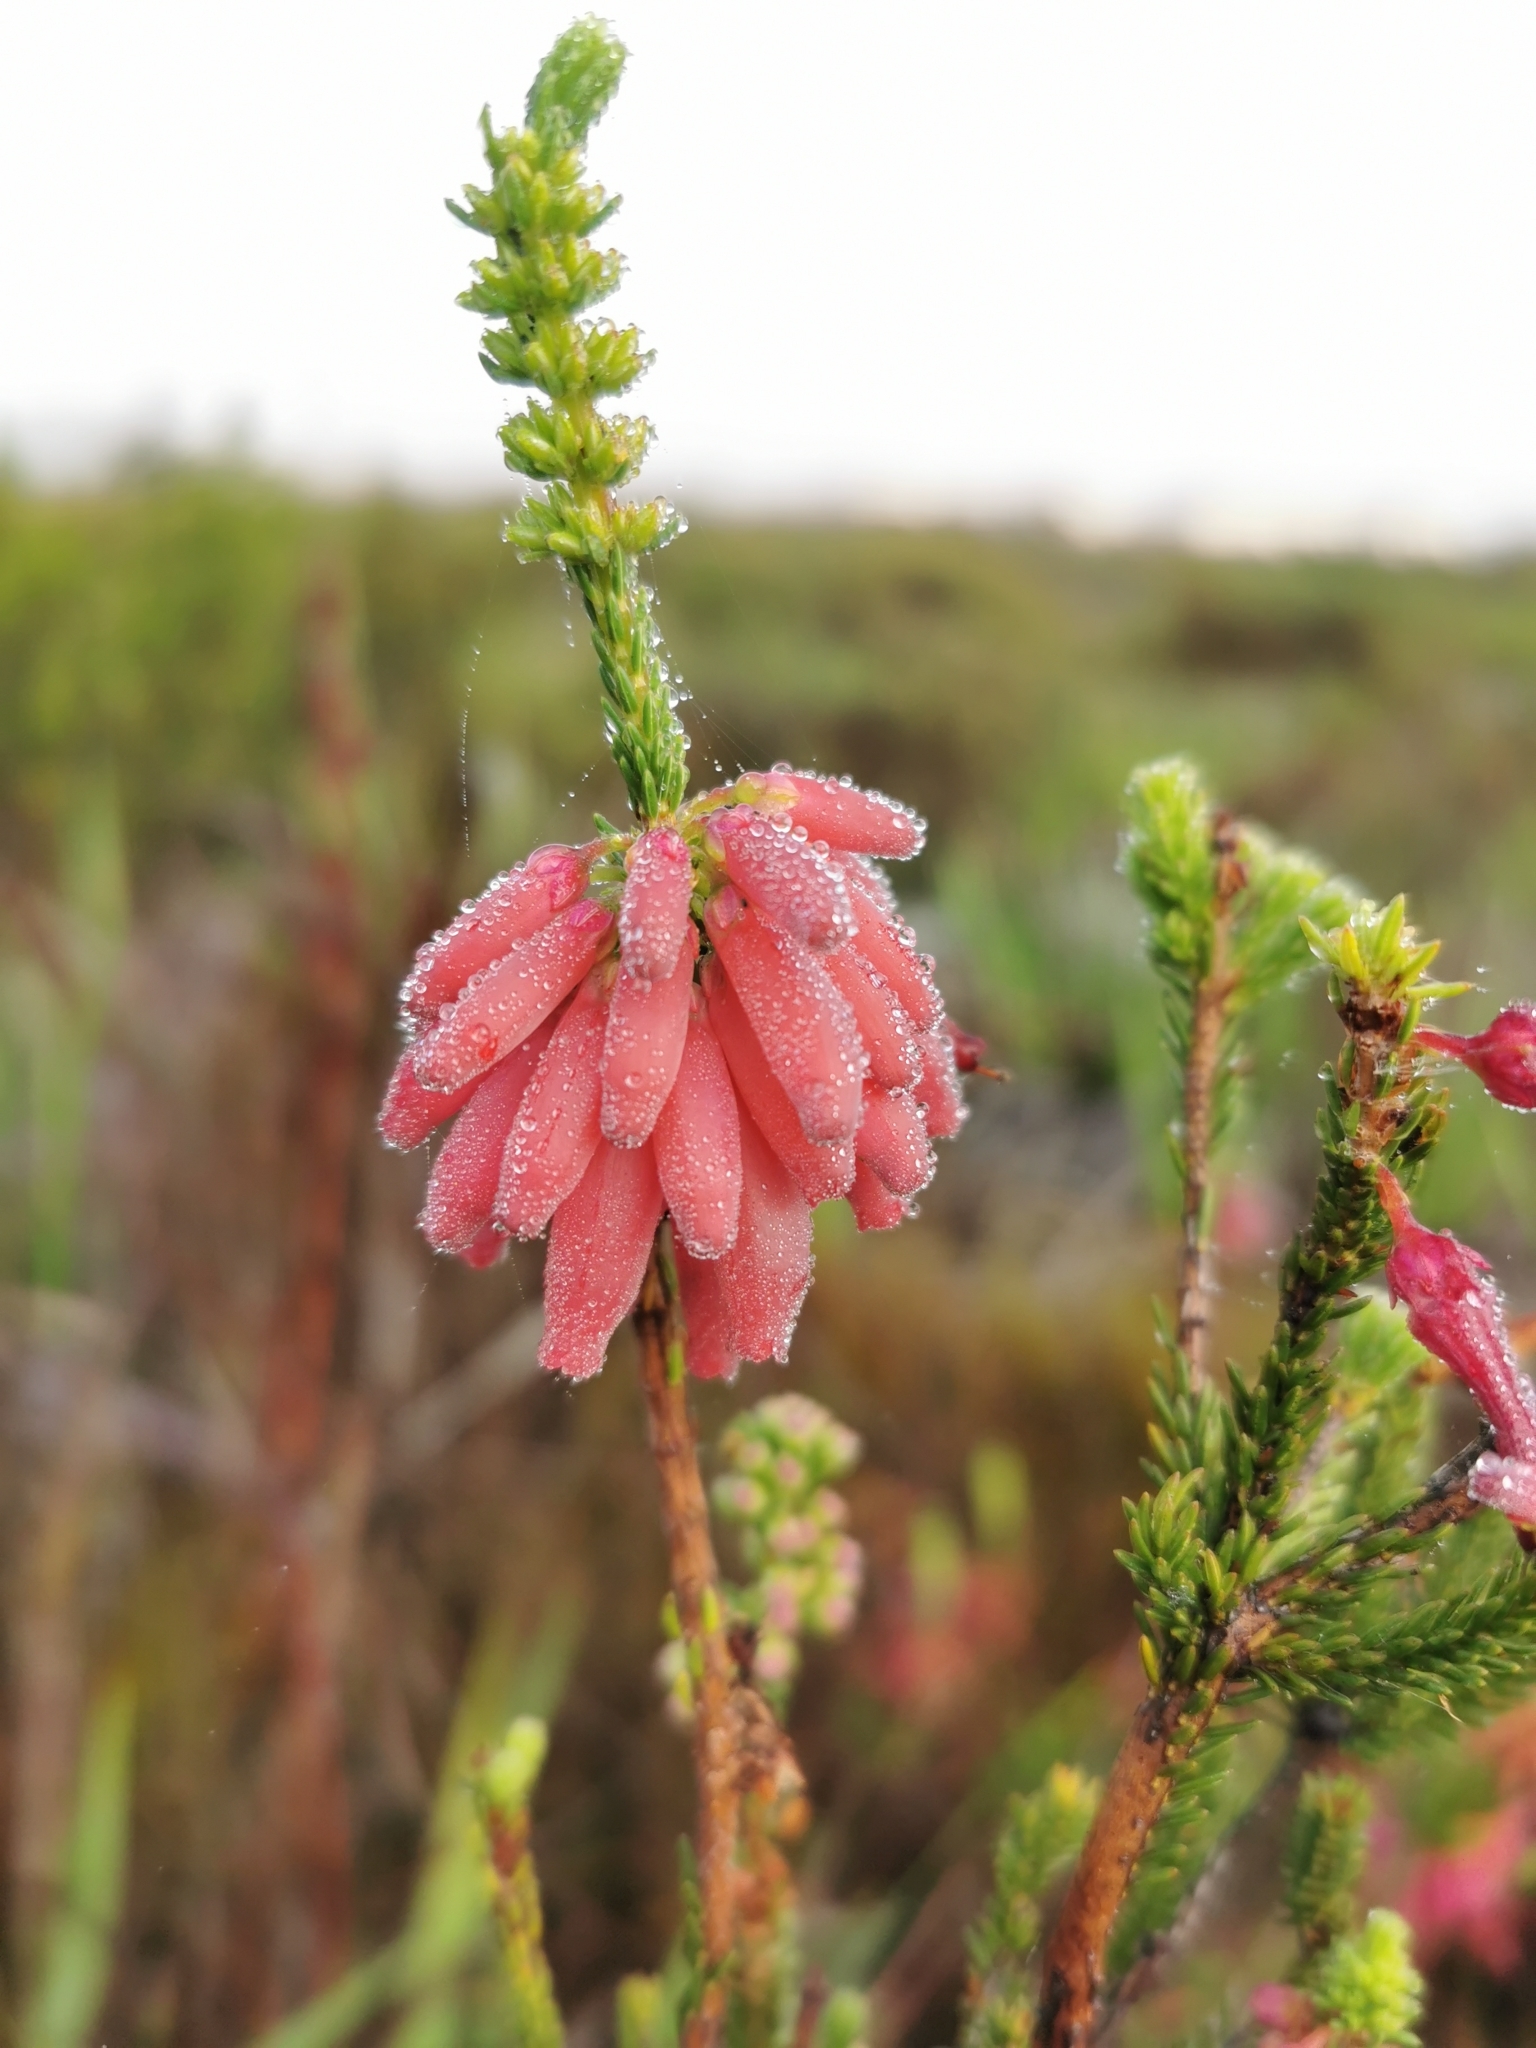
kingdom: Plantae
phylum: Tracheophyta
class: Magnoliopsida
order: Ericales
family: Ericaceae
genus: Erica
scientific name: Erica mammosa
